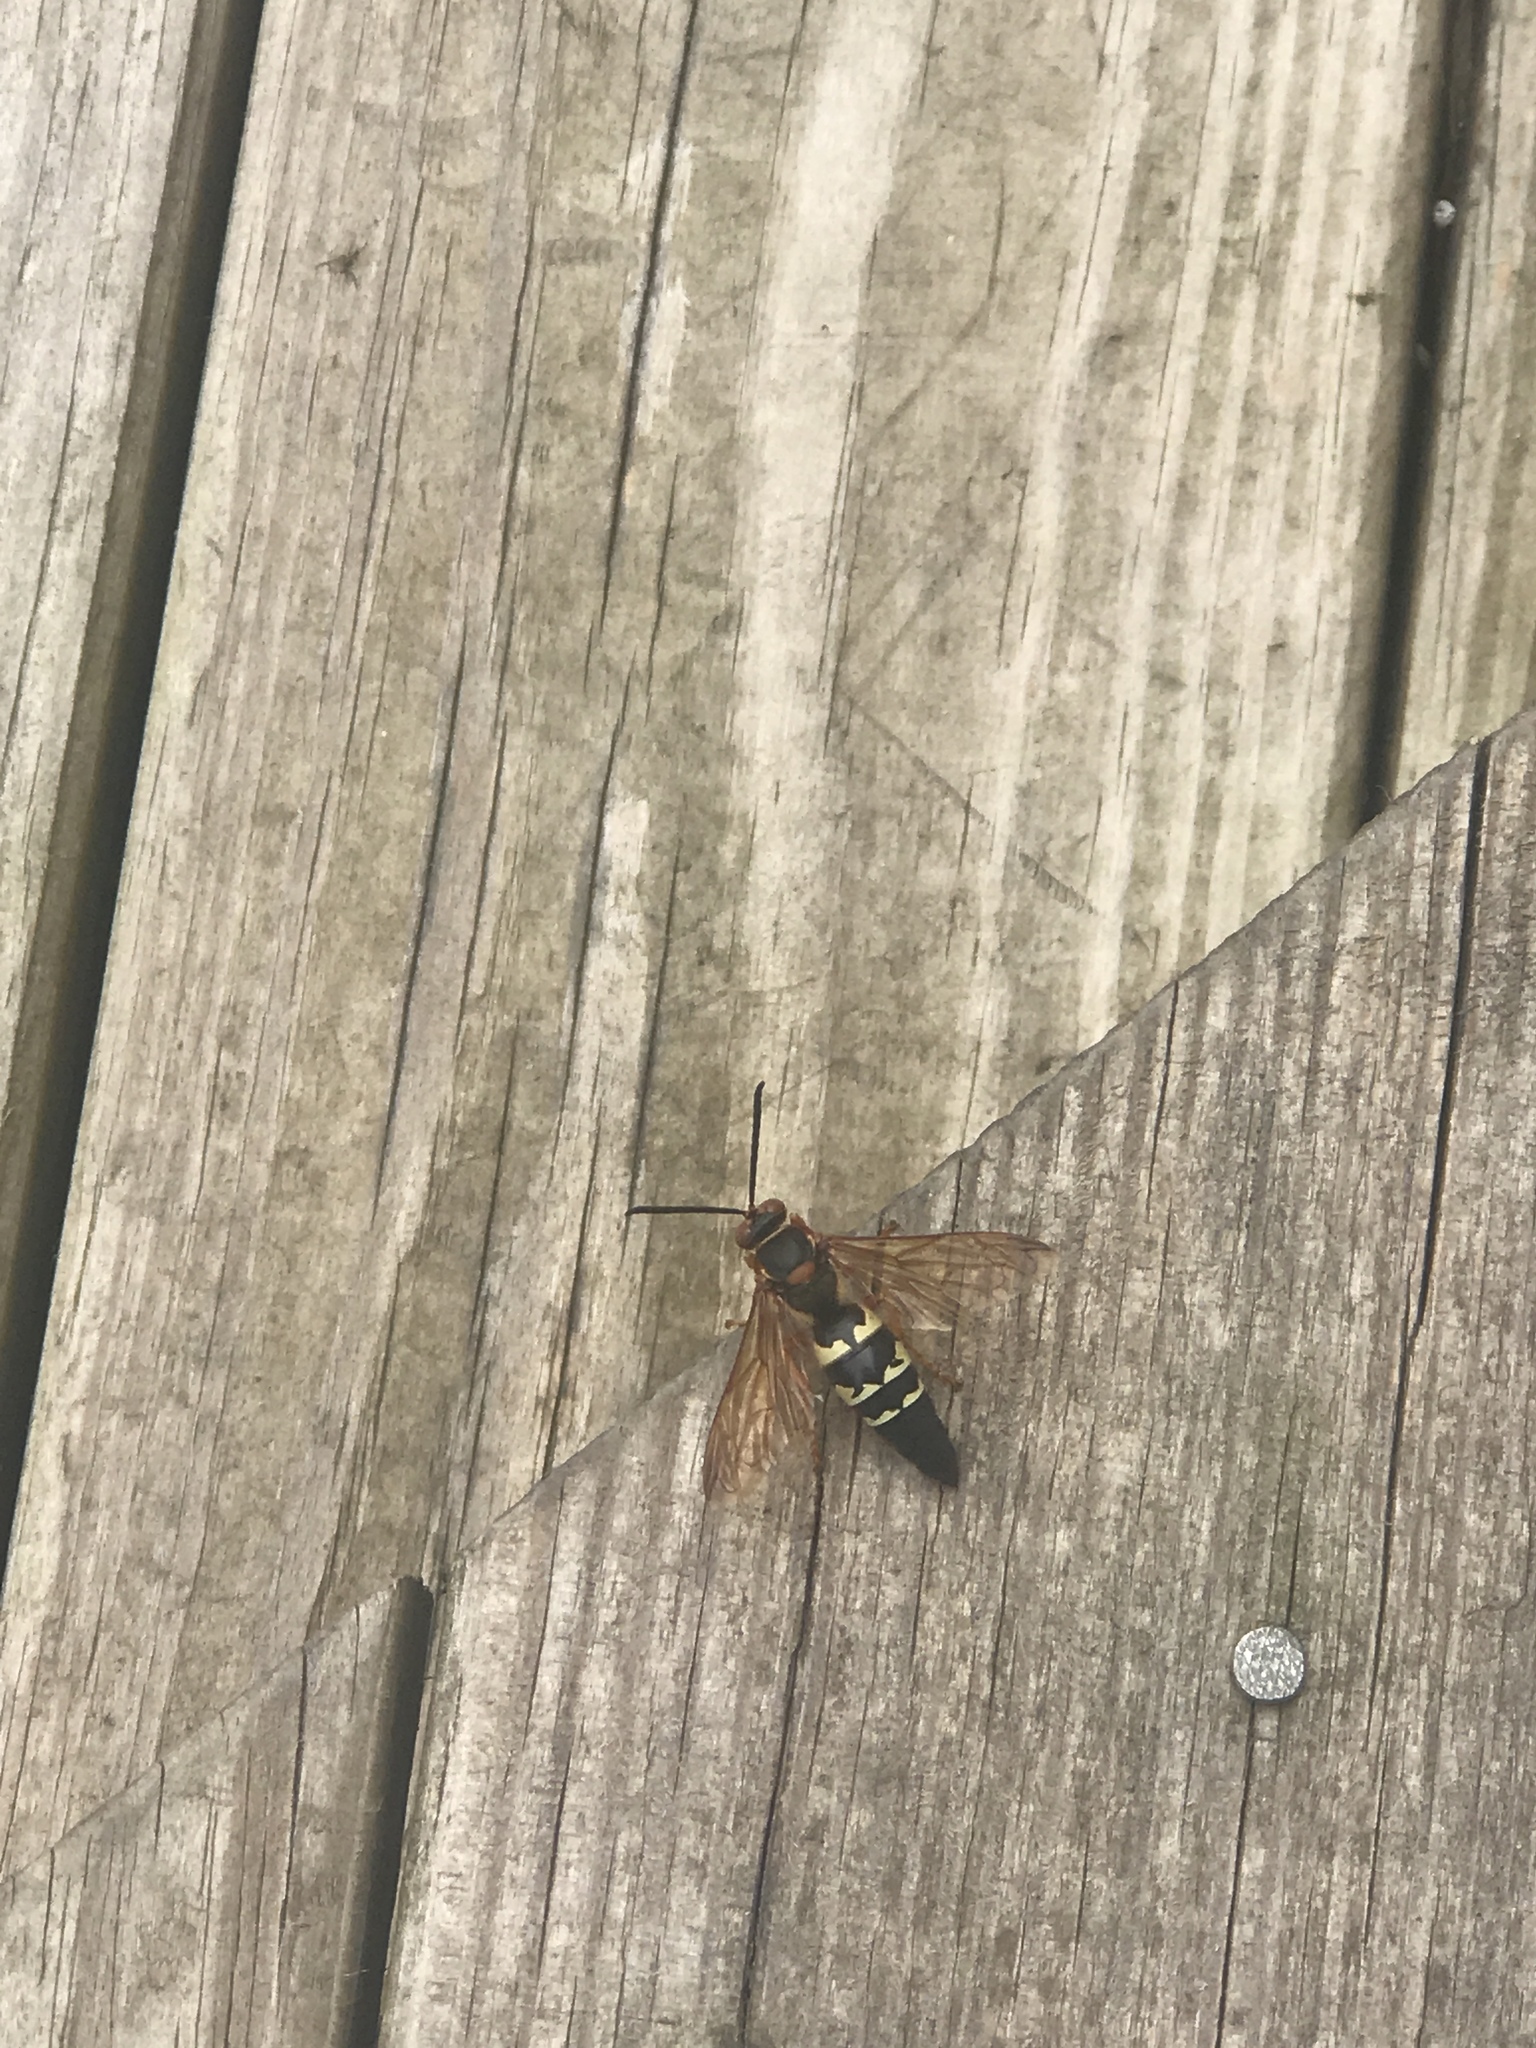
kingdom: Animalia
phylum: Arthropoda
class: Insecta
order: Hymenoptera
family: Crabronidae
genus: Sphecius
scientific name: Sphecius speciosus
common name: Cicada killer
